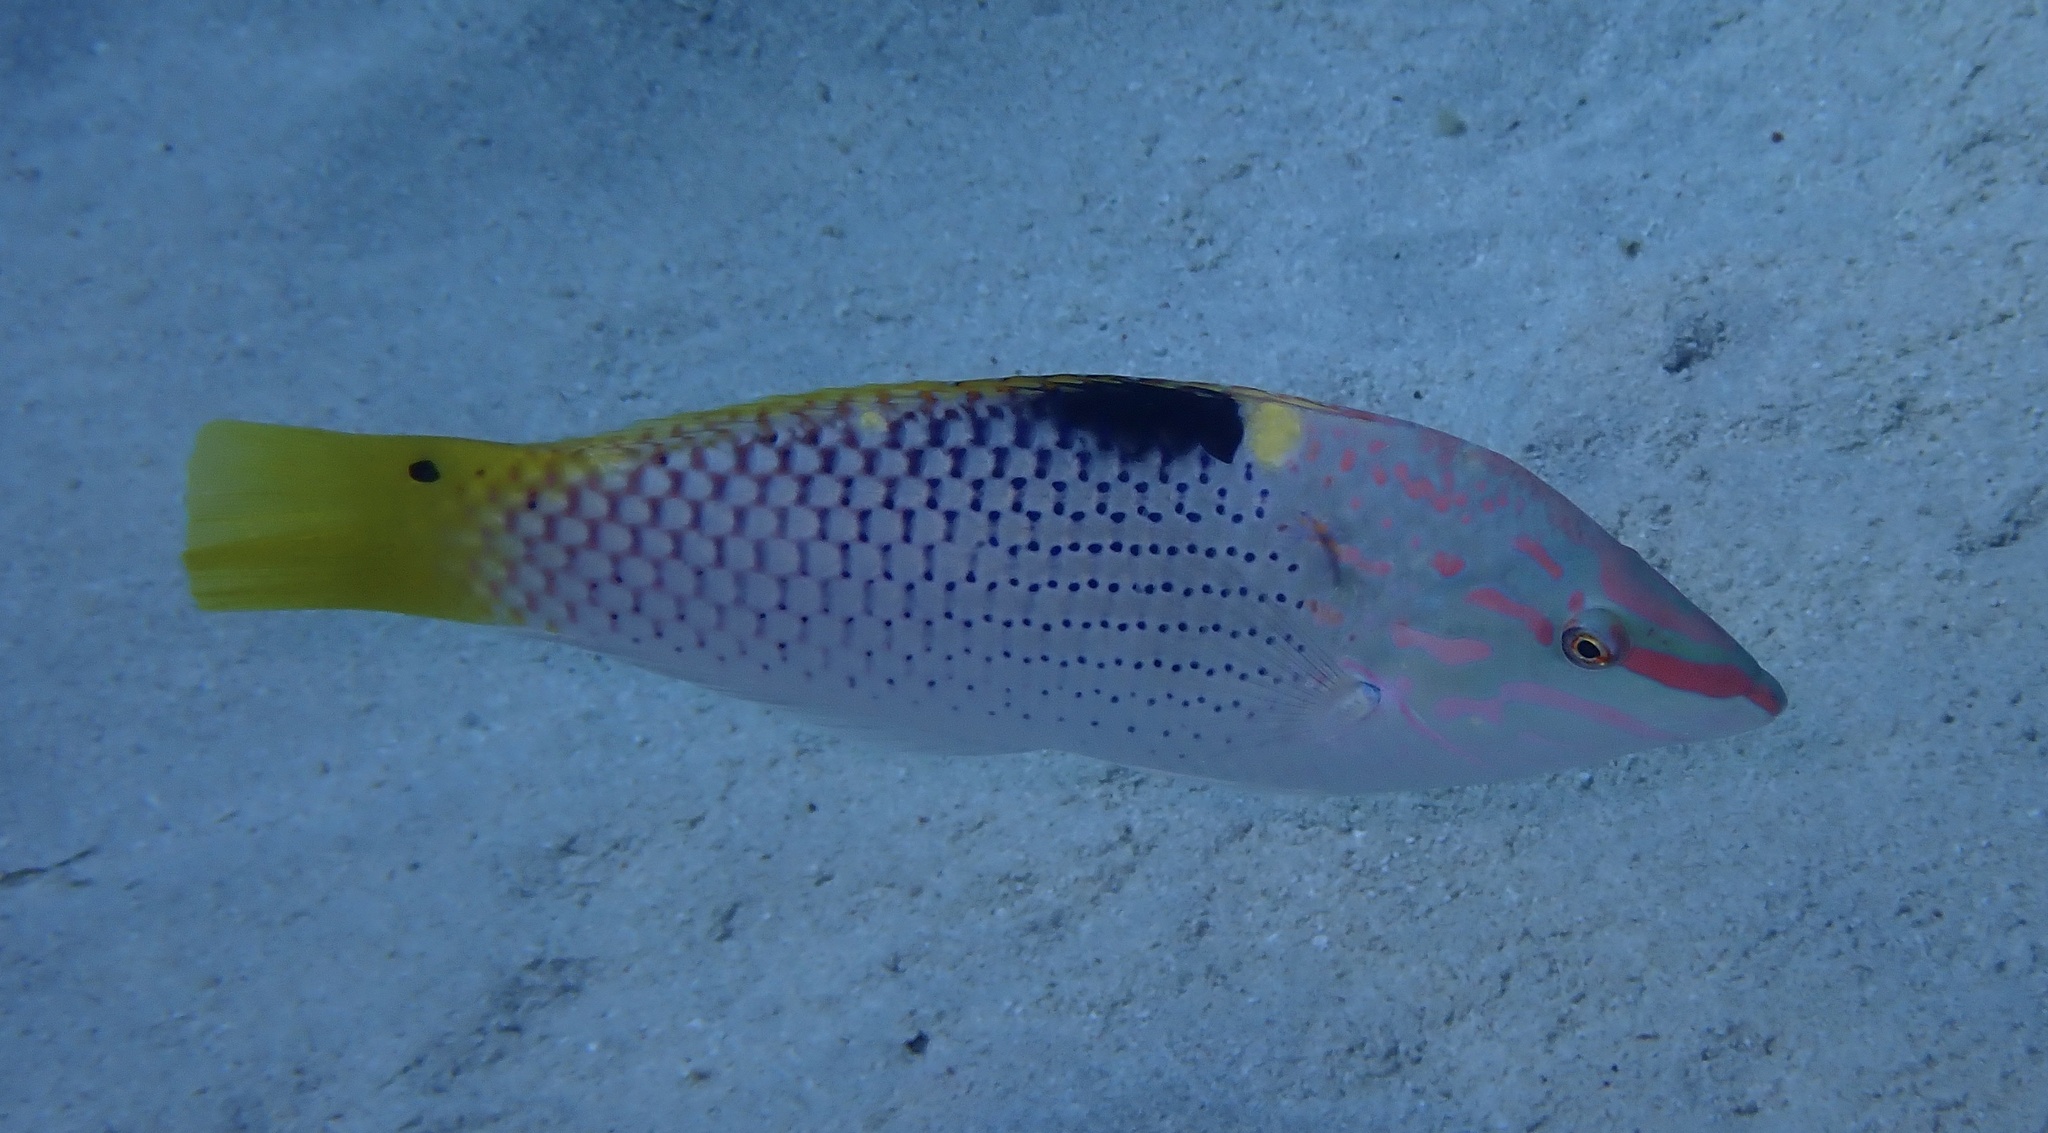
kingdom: Animalia
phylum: Chordata
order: Perciformes
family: Labridae
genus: Halichoeres
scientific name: Halichoeres hortulanus
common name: Checkerboard wrasse
